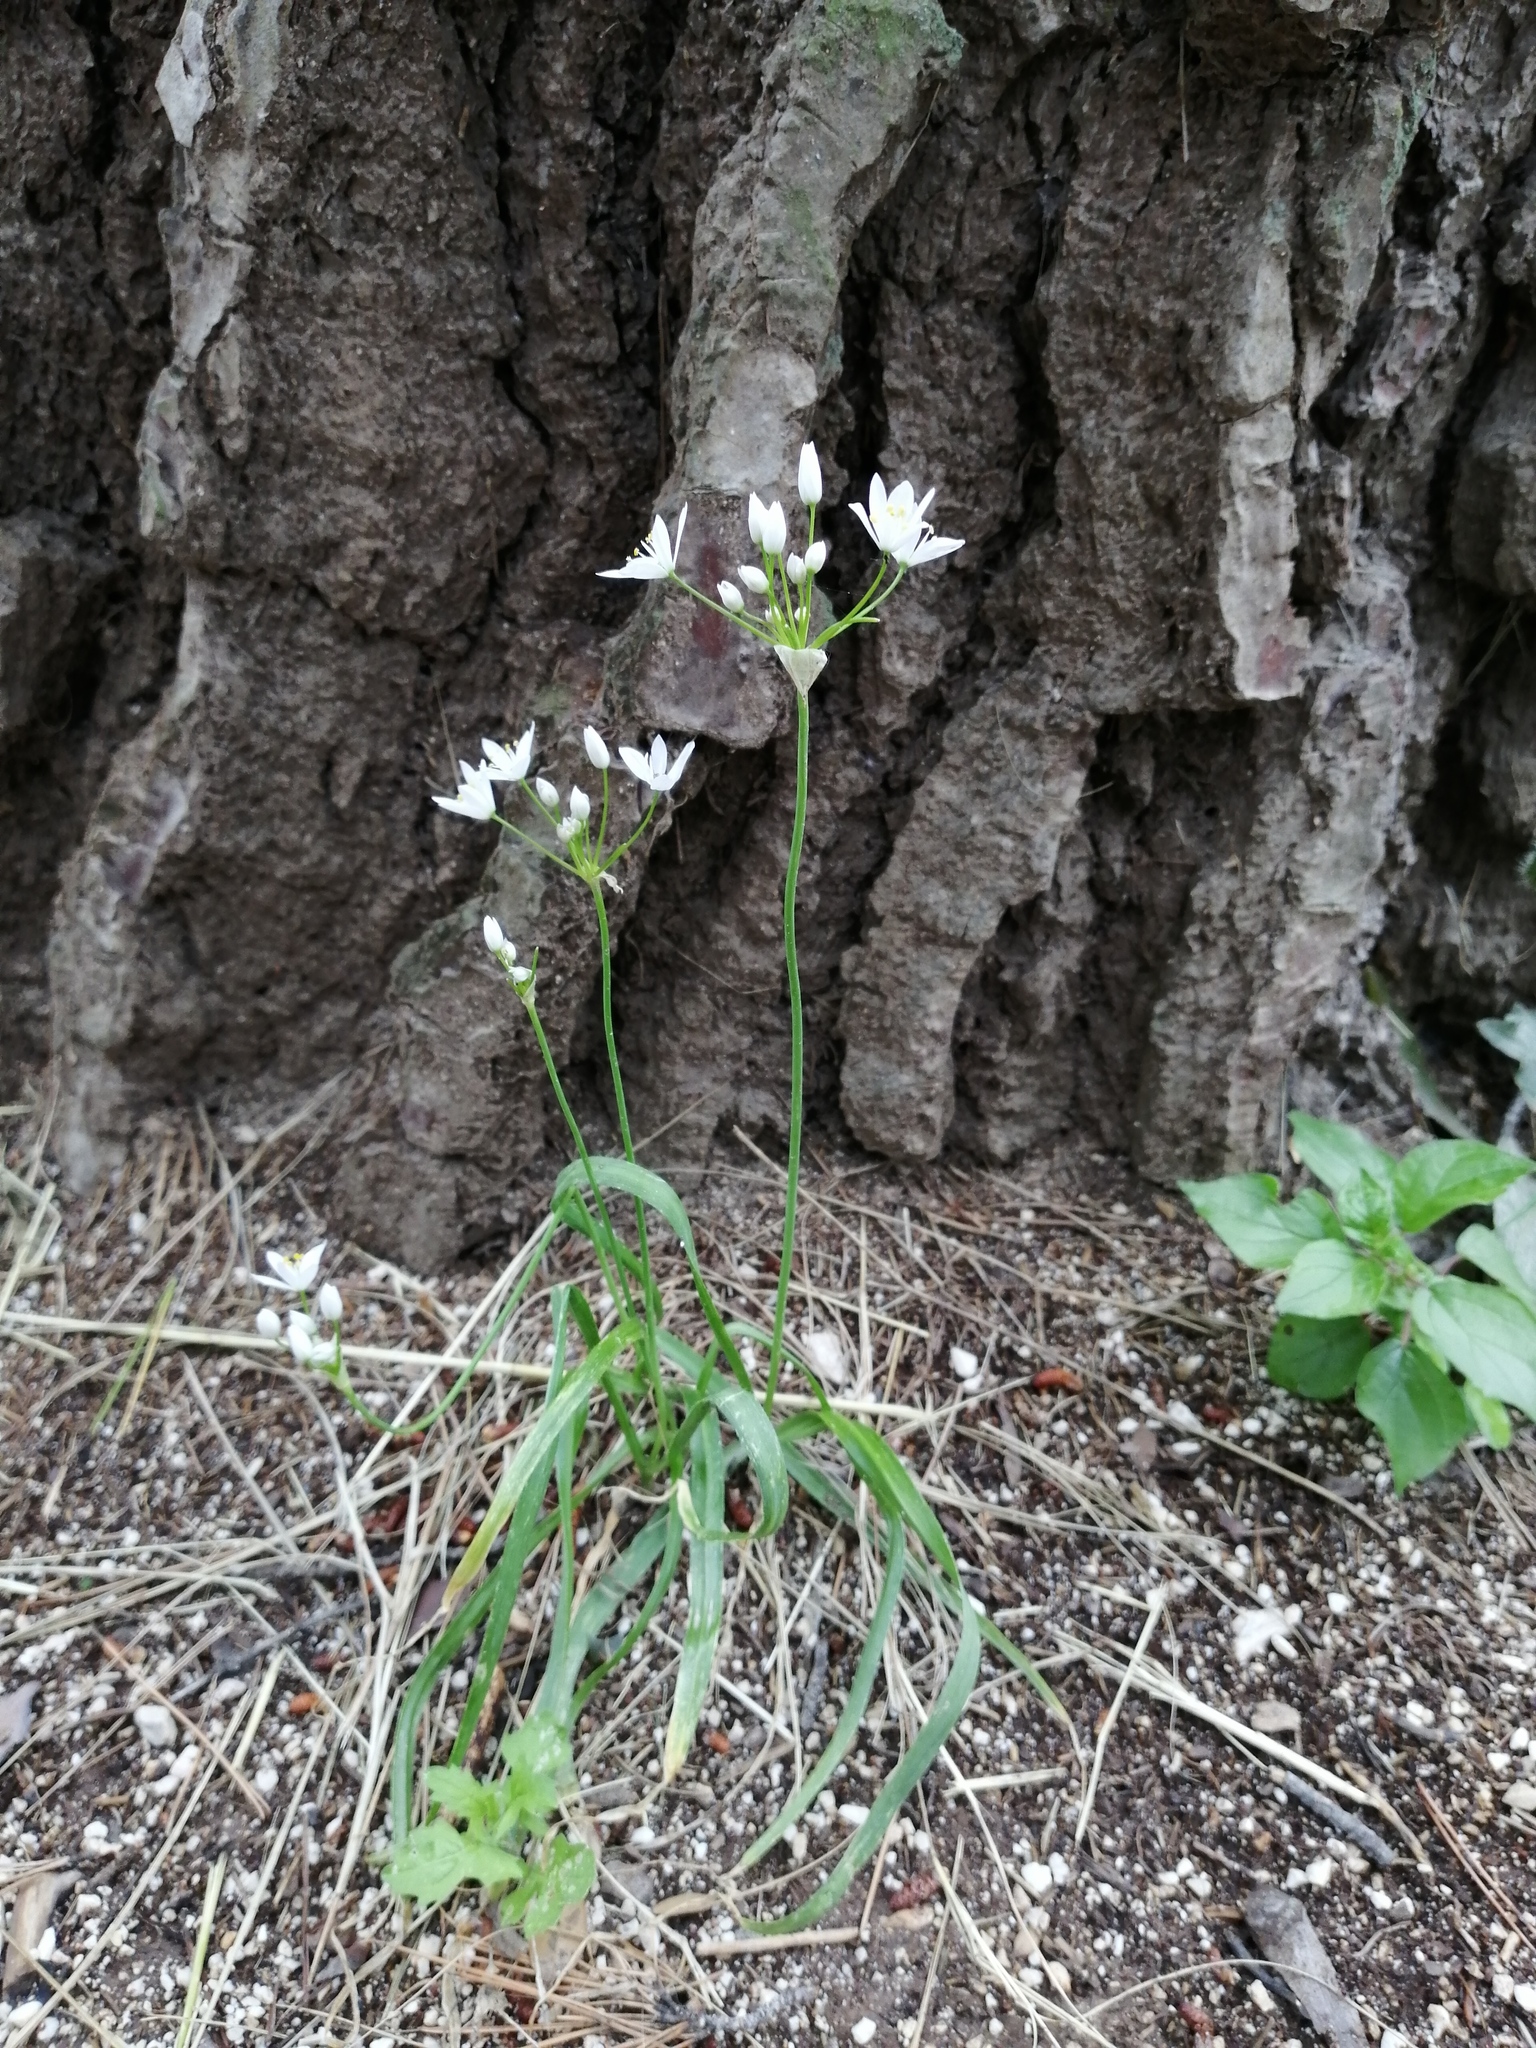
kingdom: Plantae
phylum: Tracheophyta
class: Liliopsida
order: Asparagales
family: Amaryllidaceae
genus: Allium
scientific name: Allium subhirsutum
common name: Hairy garlic
